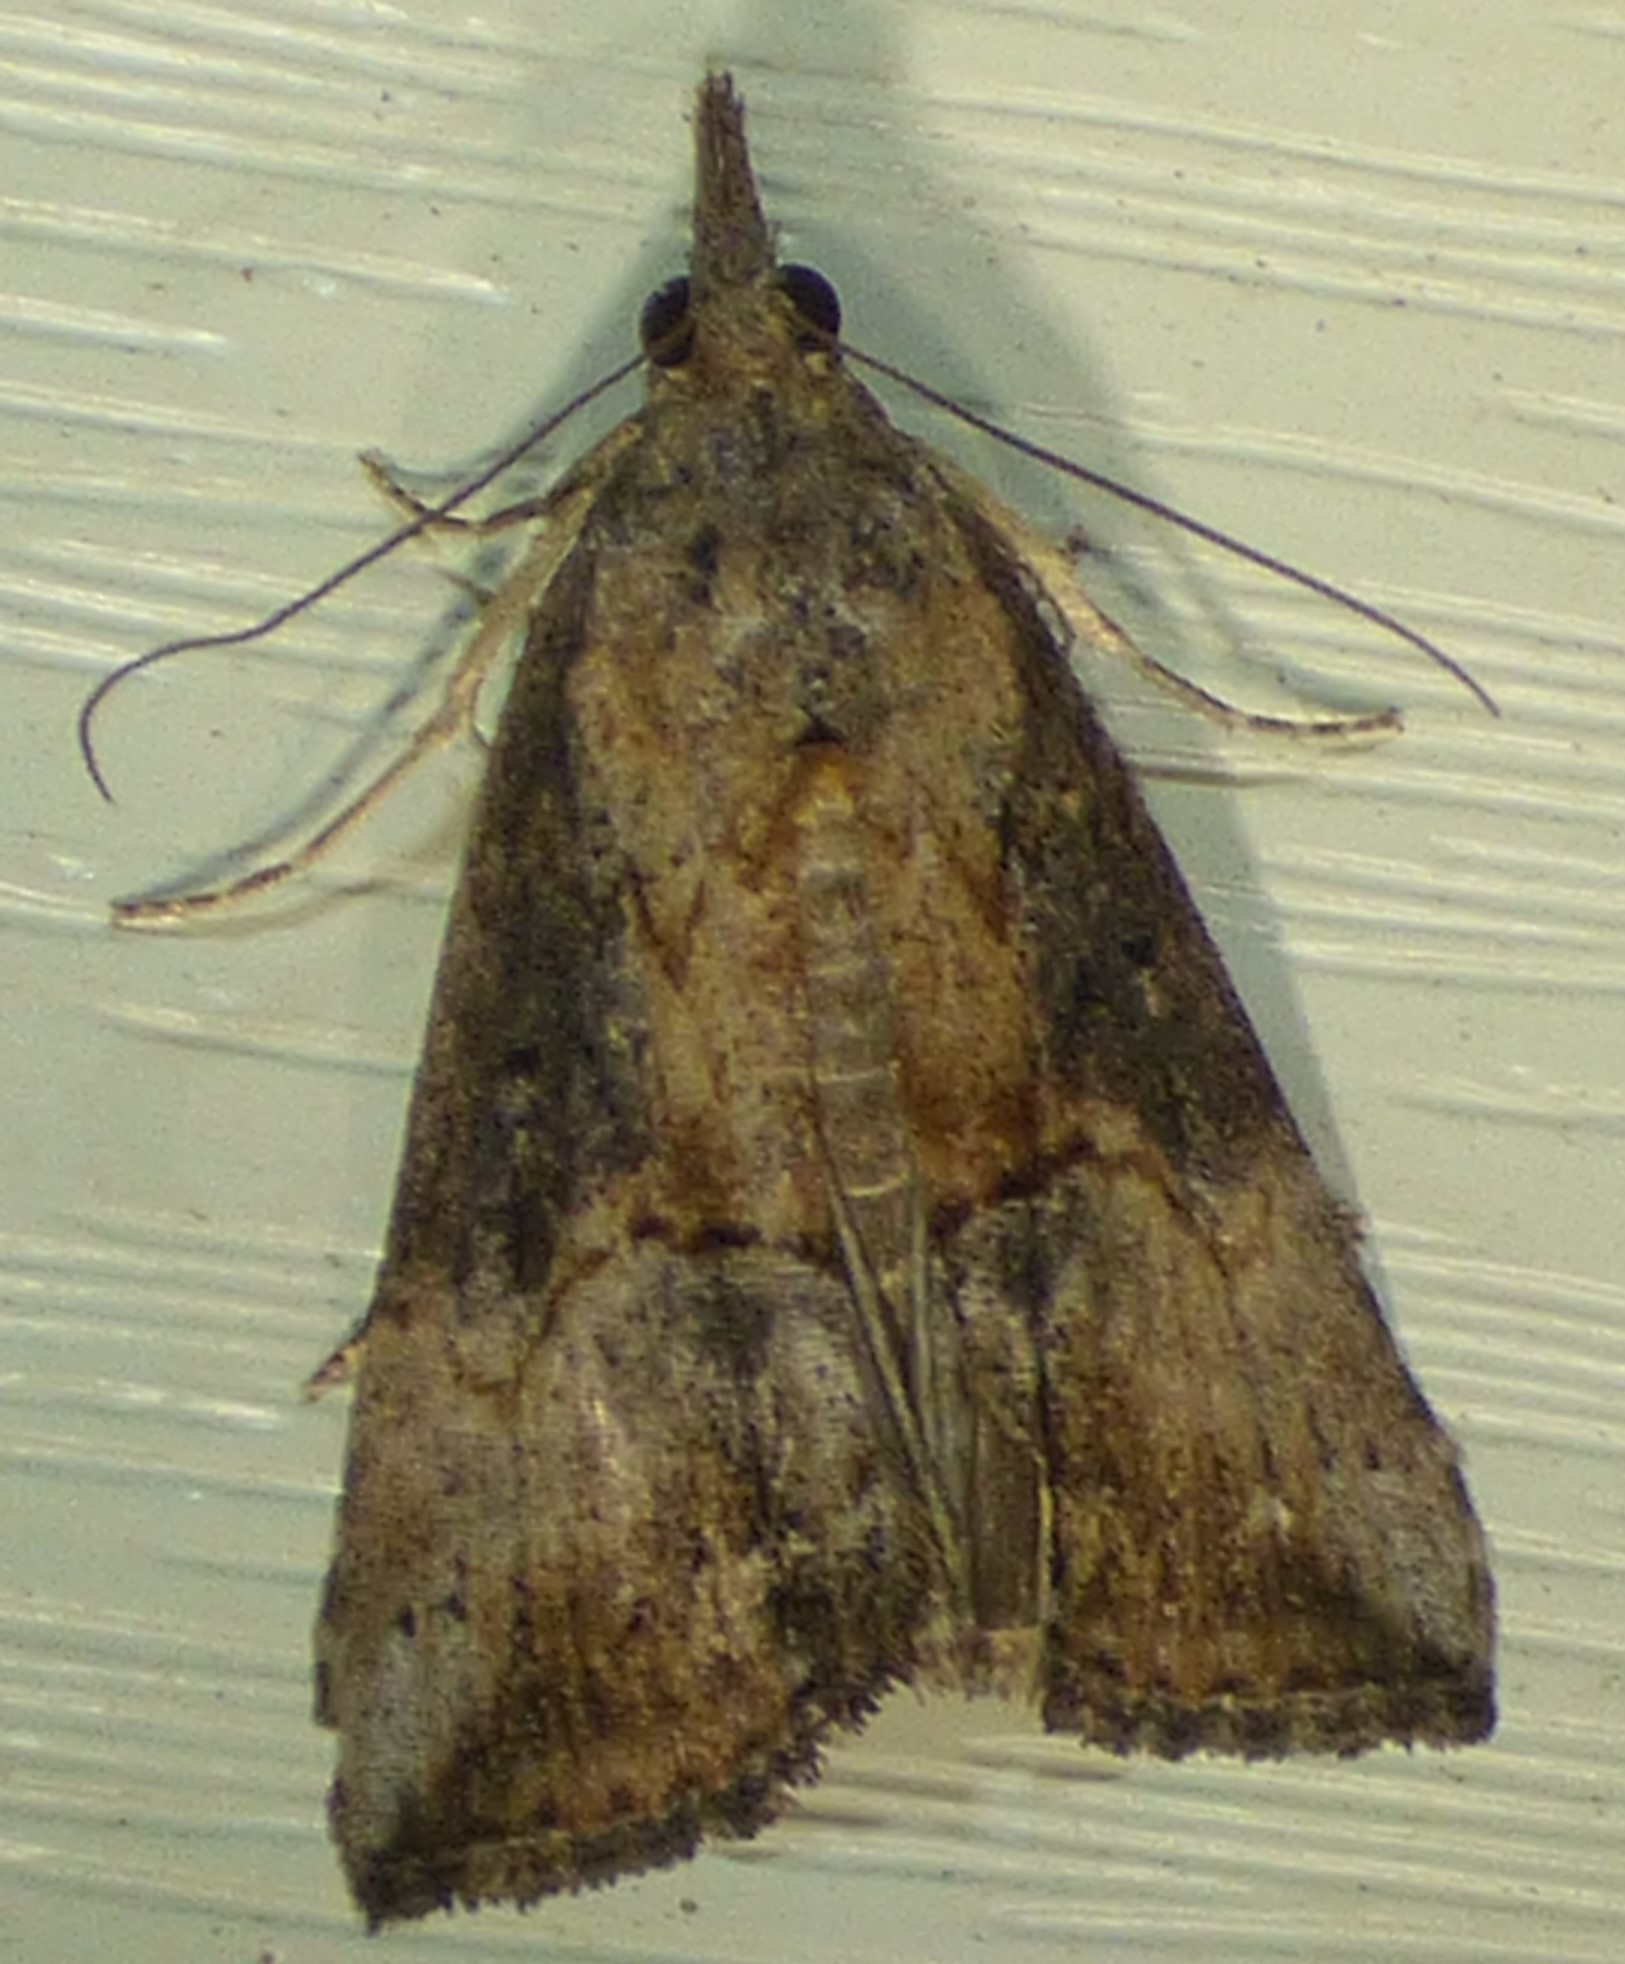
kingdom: Animalia
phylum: Arthropoda
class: Insecta
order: Lepidoptera
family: Erebidae
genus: Hypena
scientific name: Hypena scabra
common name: Green cloverworm
